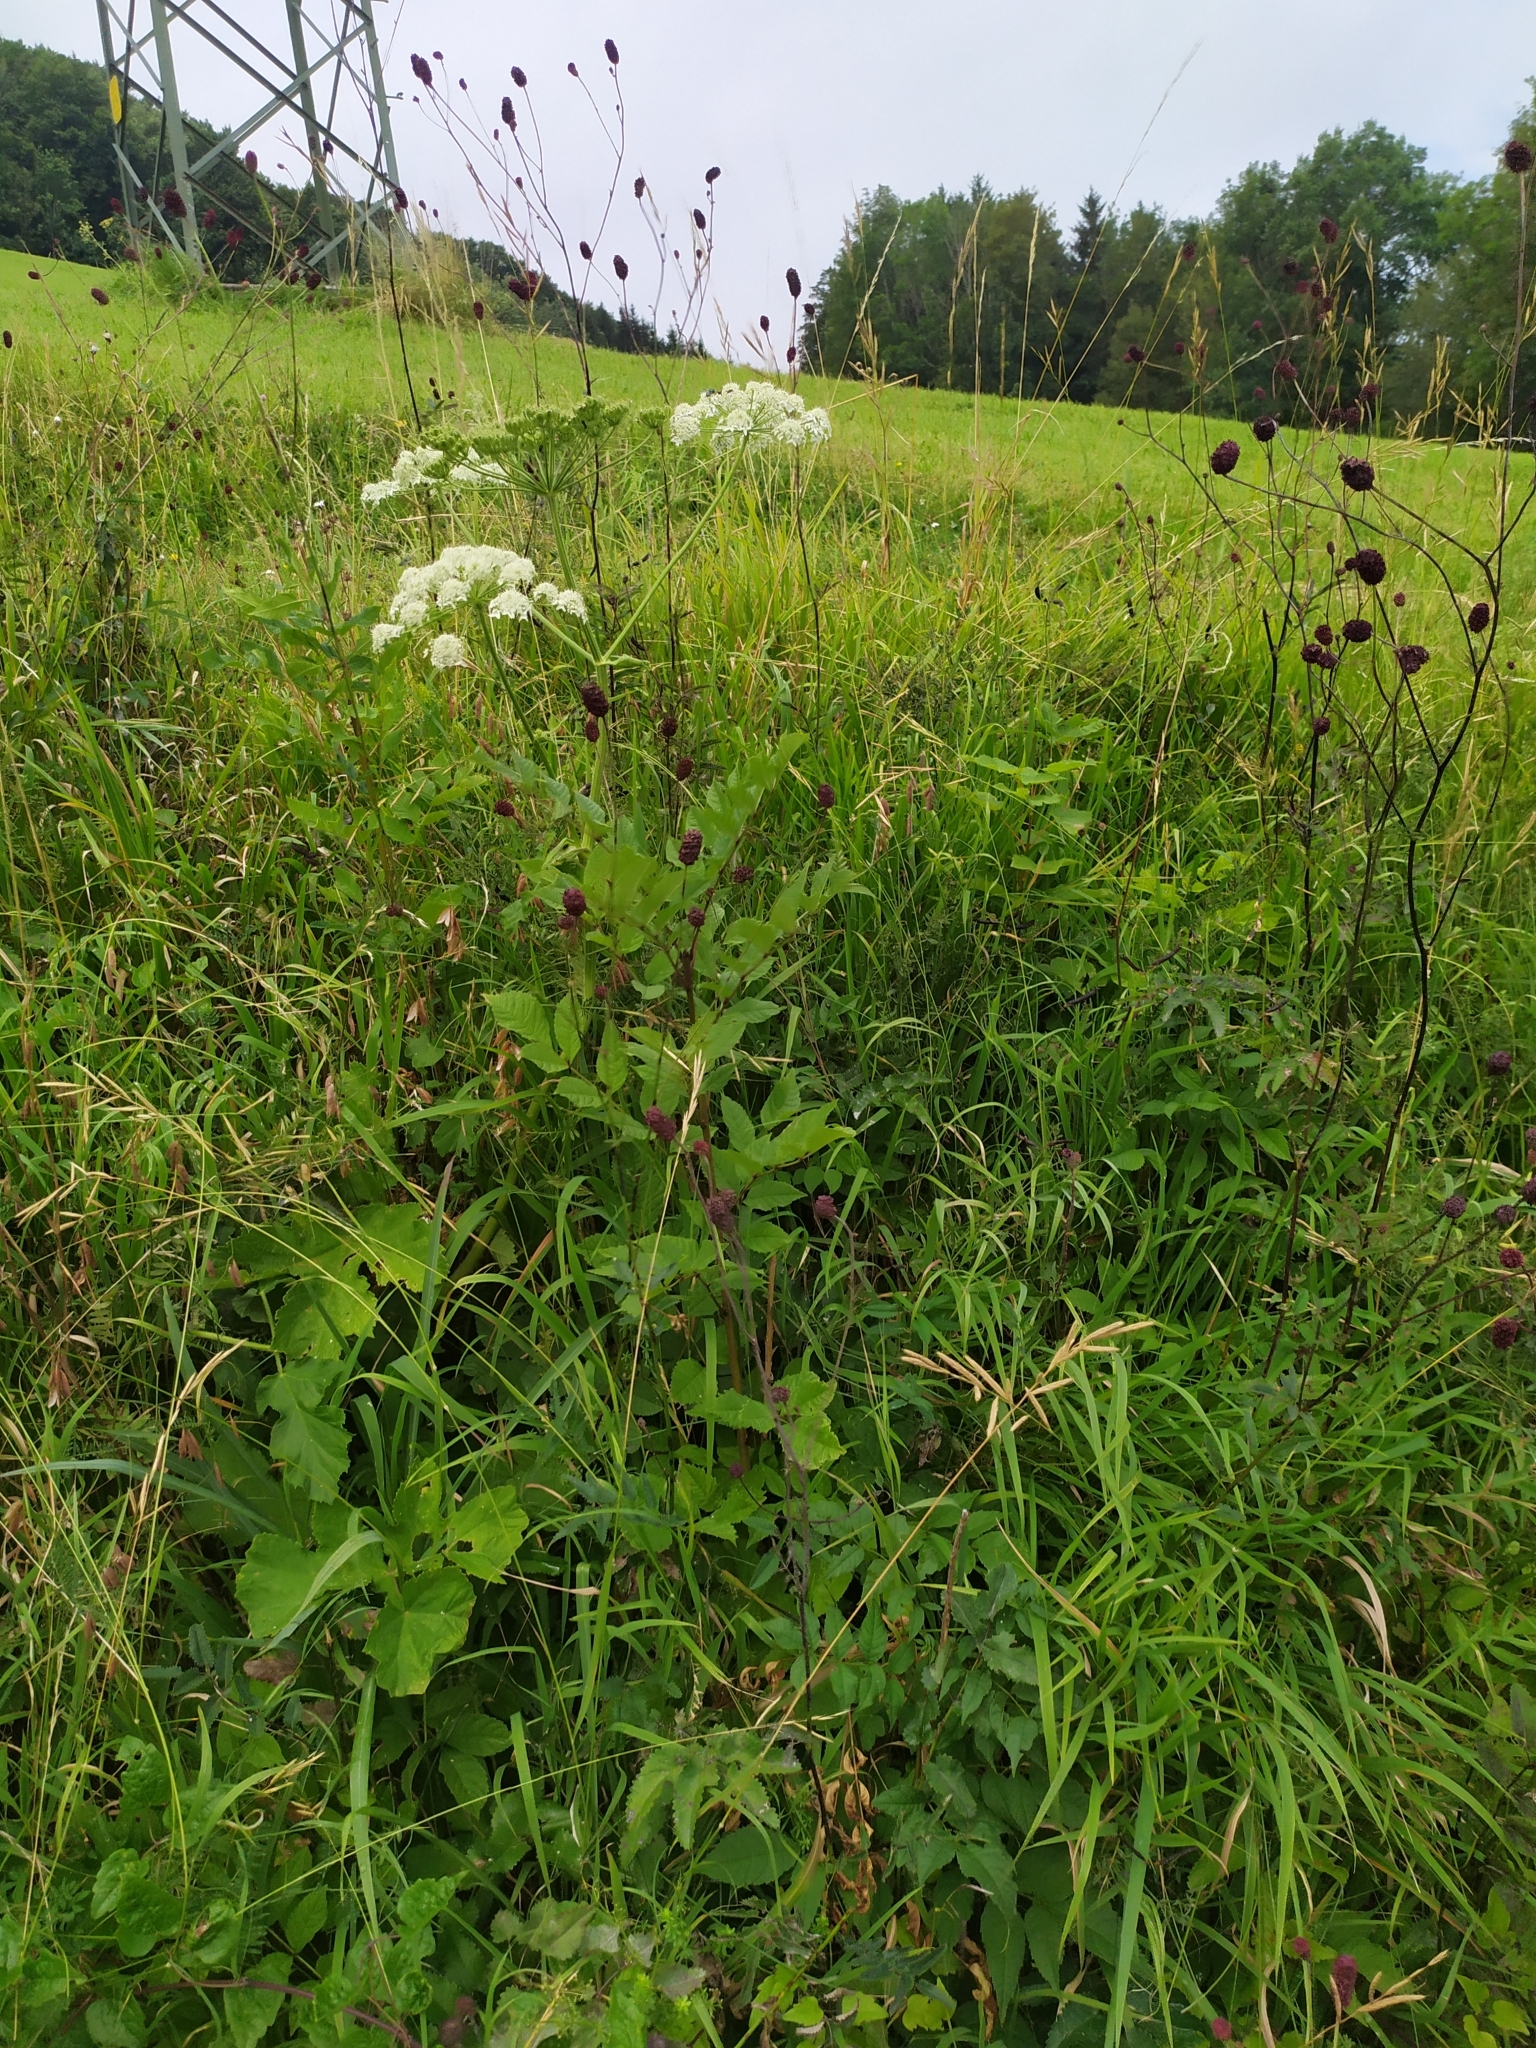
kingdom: Plantae
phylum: Tracheophyta
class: Magnoliopsida
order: Rosales
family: Rosaceae
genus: Sanguisorba
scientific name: Sanguisorba officinalis
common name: Great burnet
